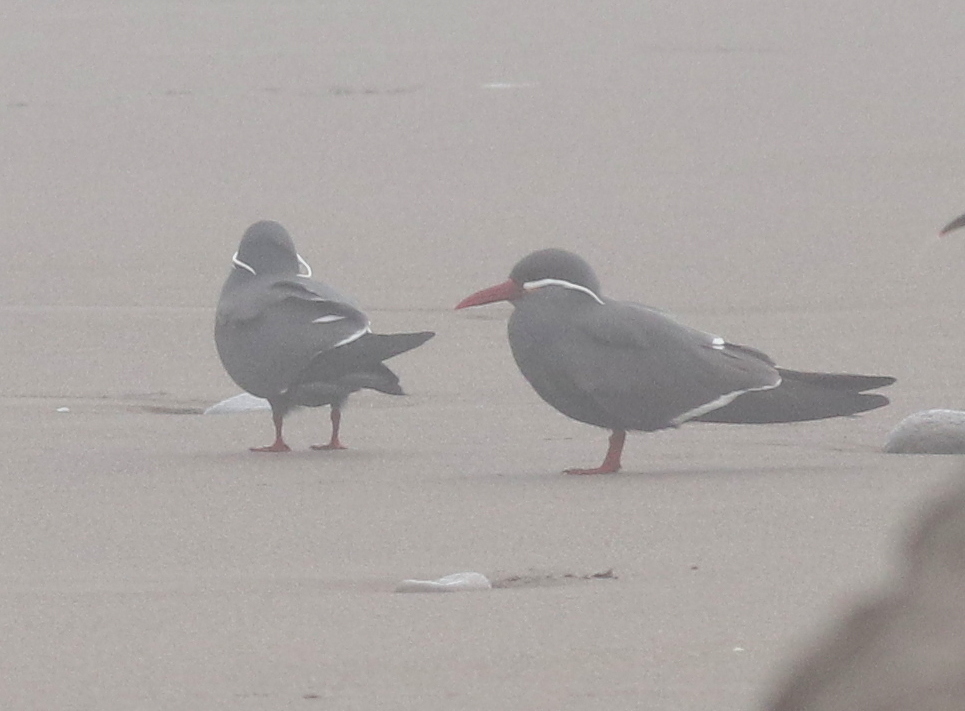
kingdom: Animalia
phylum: Chordata
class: Aves
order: Charadriiformes
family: Laridae
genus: Larosterna
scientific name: Larosterna inca
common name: Inca tern
